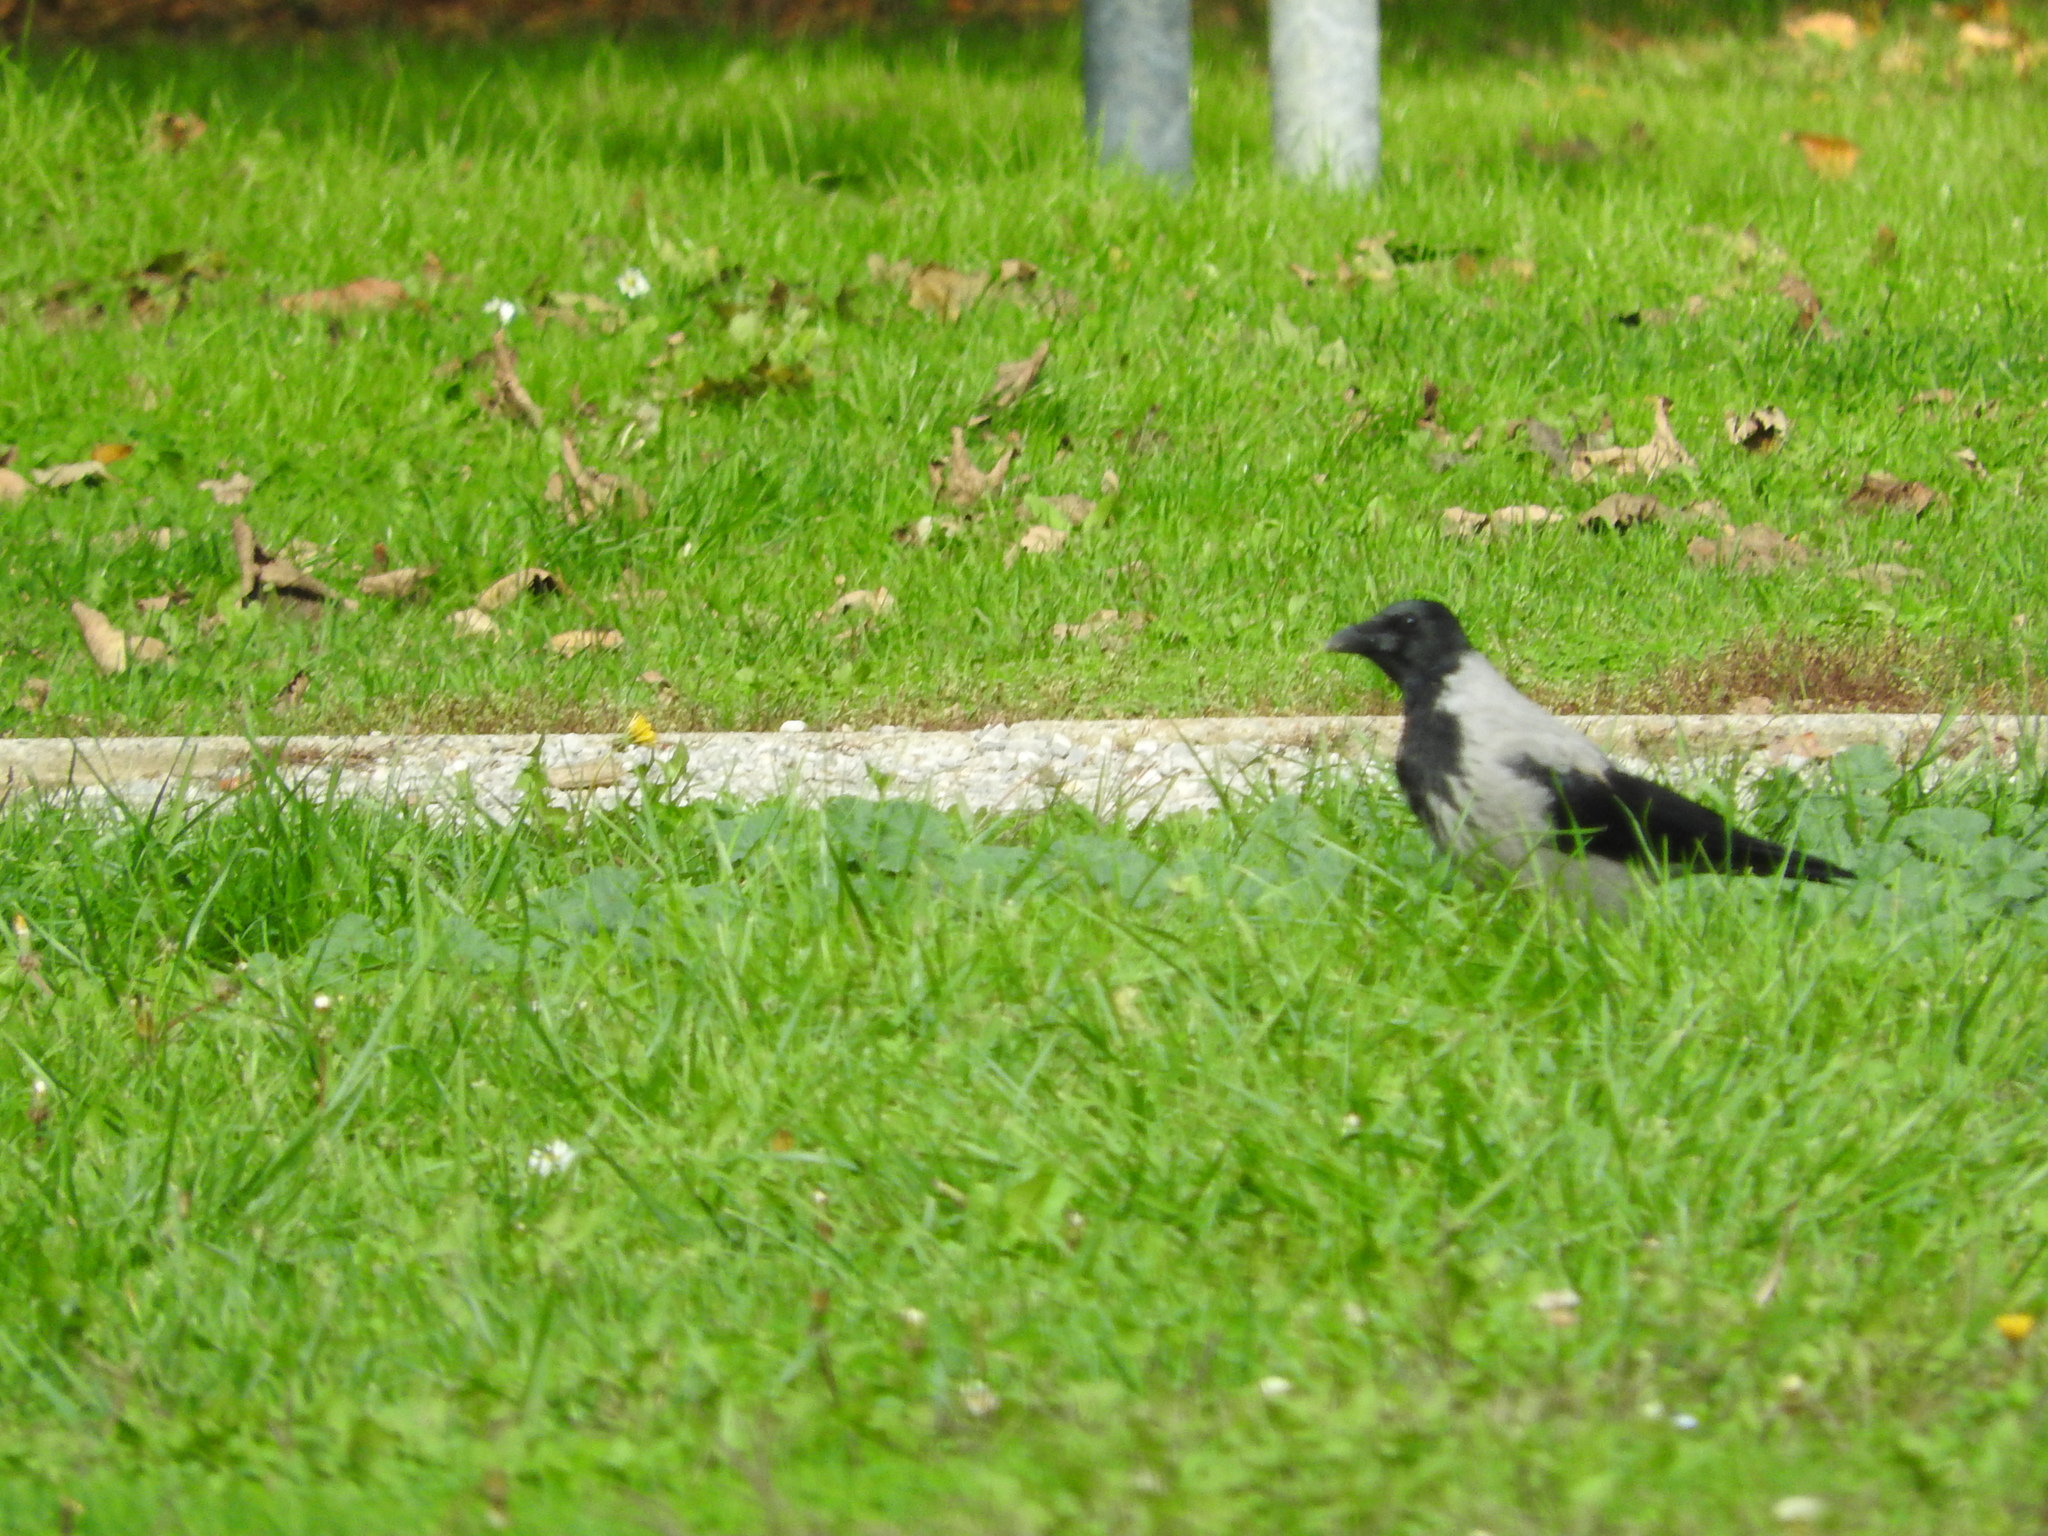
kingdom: Animalia
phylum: Chordata
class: Aves
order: Passeriformes
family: Corvidae
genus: Corvus
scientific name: Corvus cornix
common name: Hooded crow
